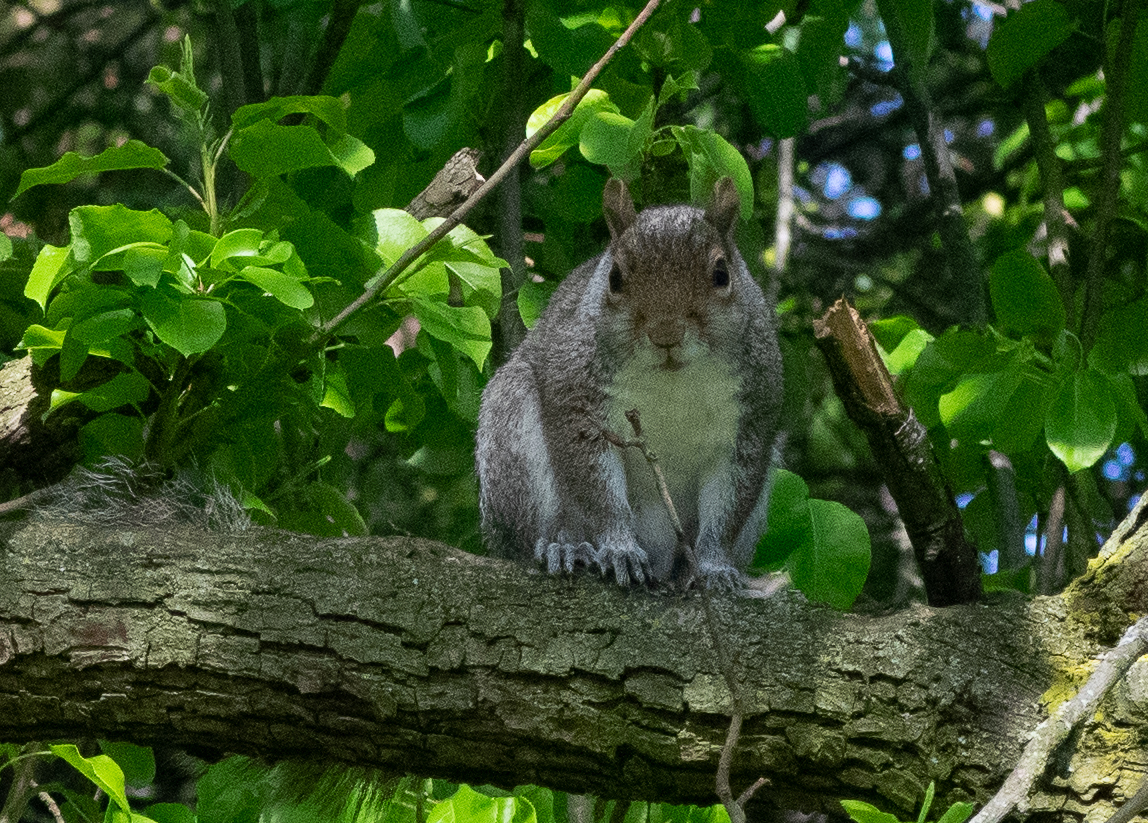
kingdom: Animalia
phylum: Chordata
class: Mammalia
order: Rodentia
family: Sciuridae
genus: Sciurus
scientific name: Sciurus carolinensis
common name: Eastern gray squirrel
